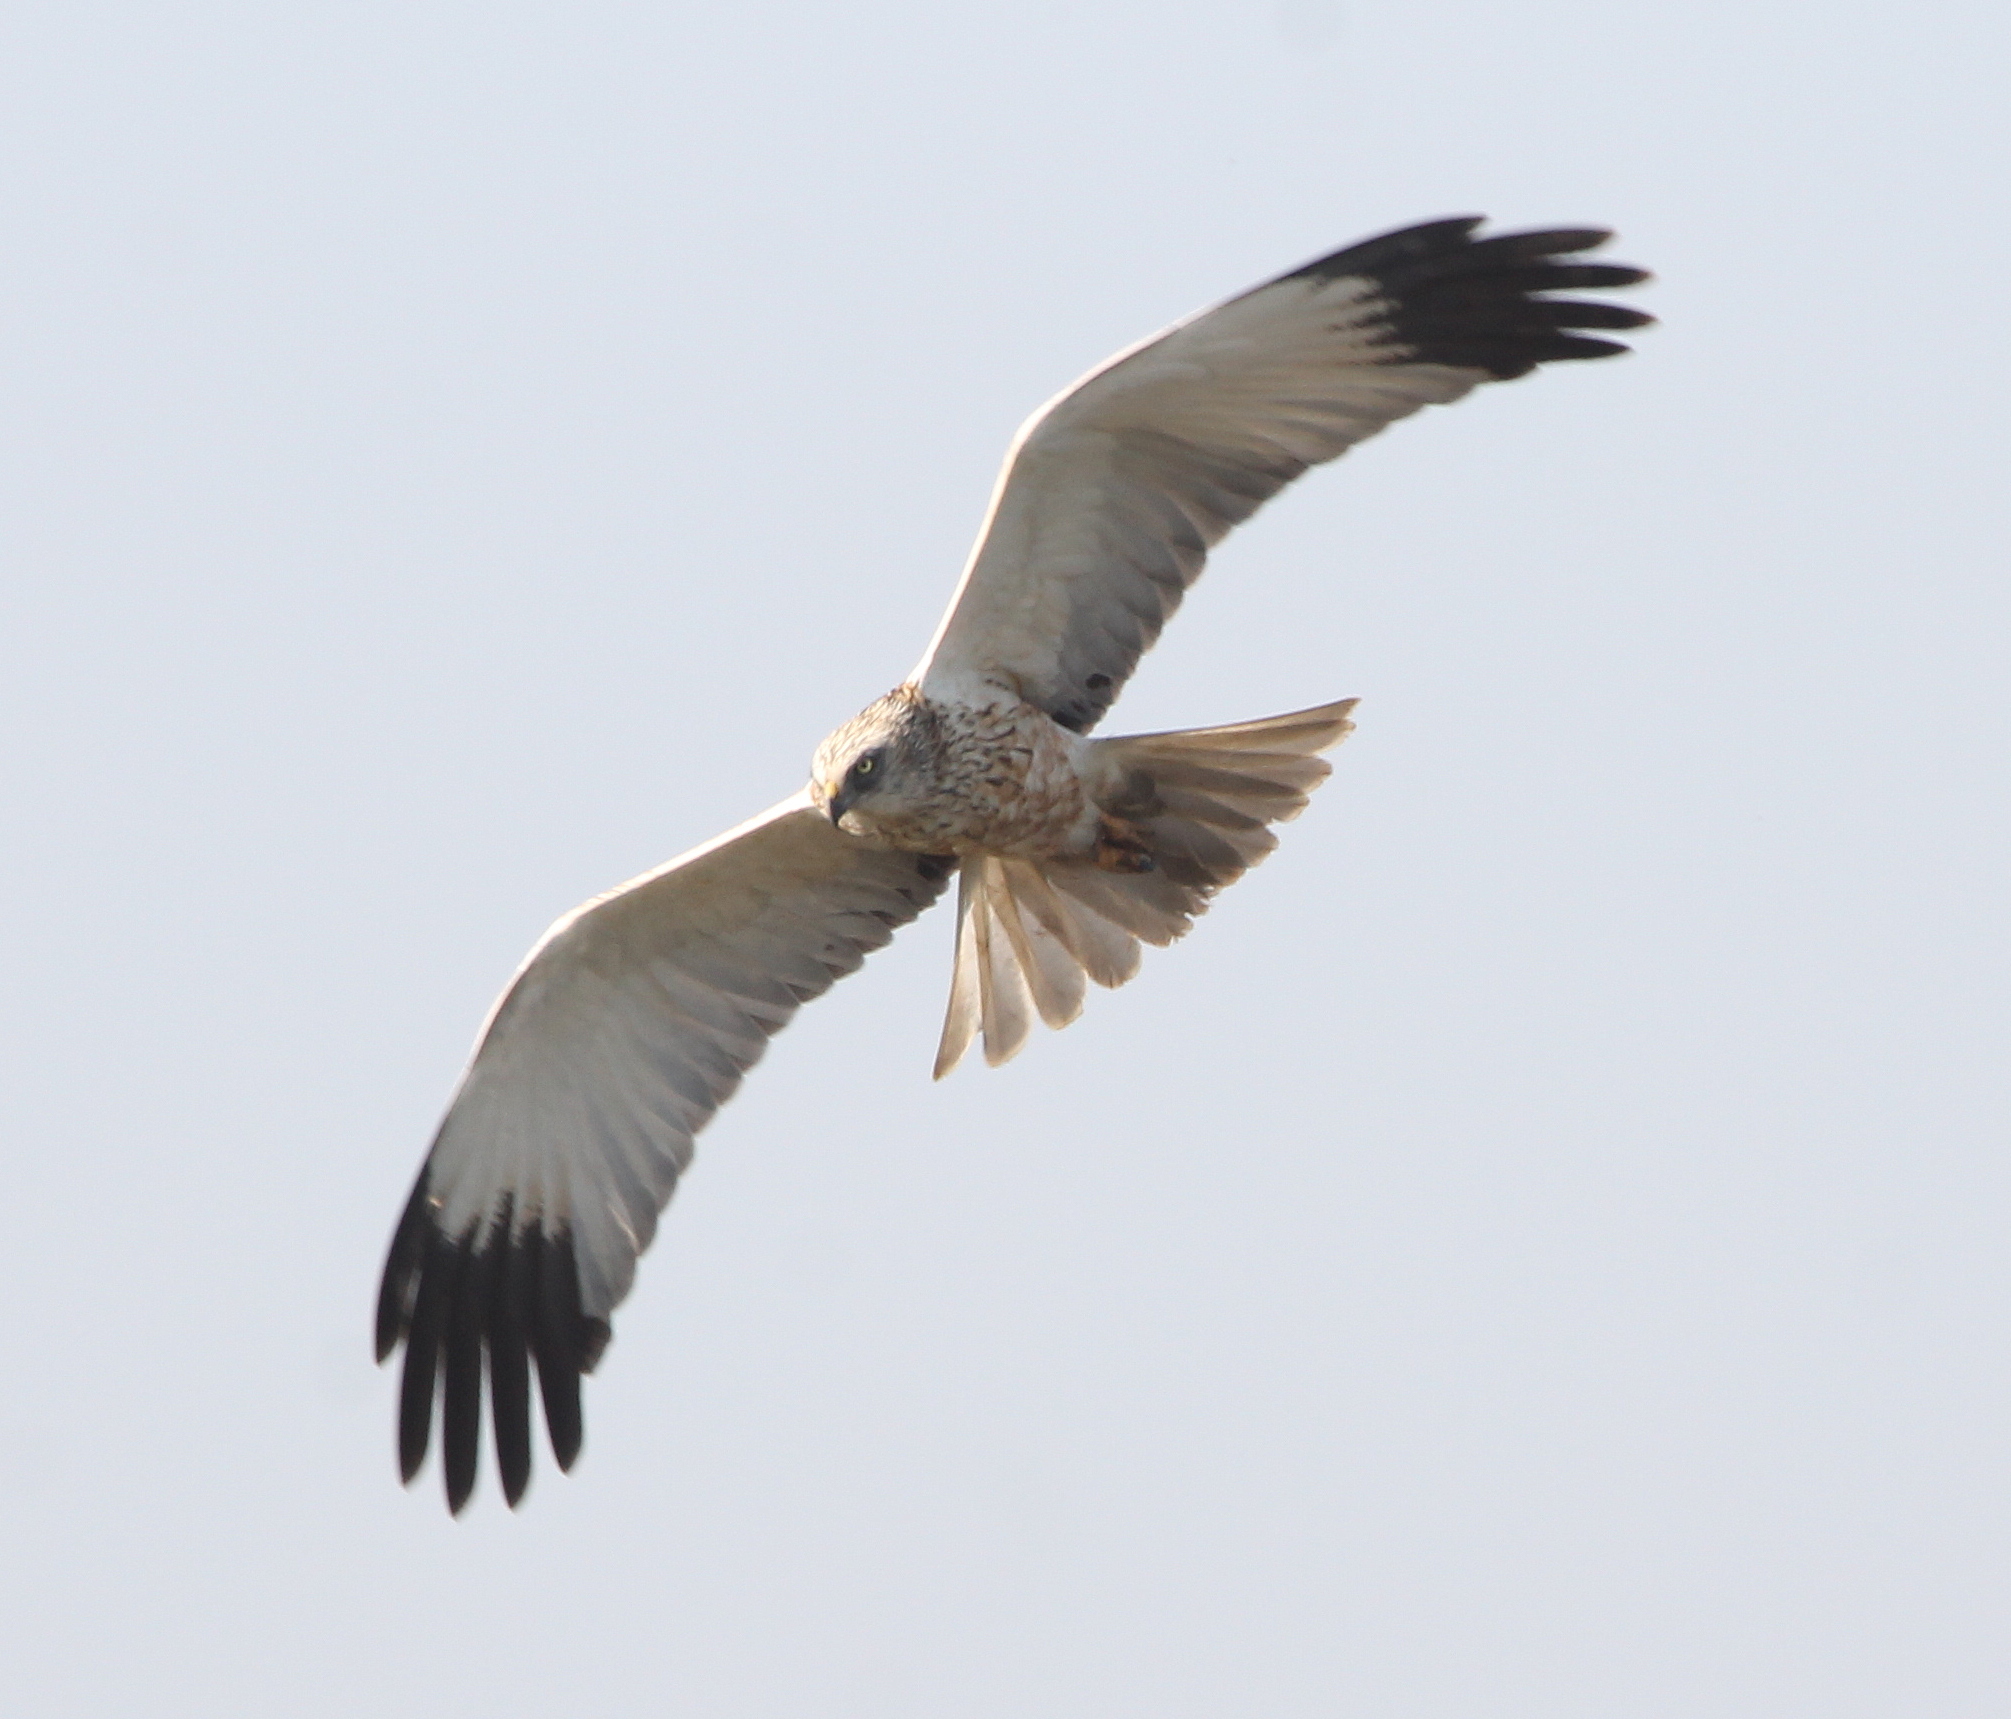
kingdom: Animalia
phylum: Chordata
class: Aves
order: Accipitriformes
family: Accipitridae
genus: Circus
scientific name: Circus aeruginosus
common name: Western marsh harrier
